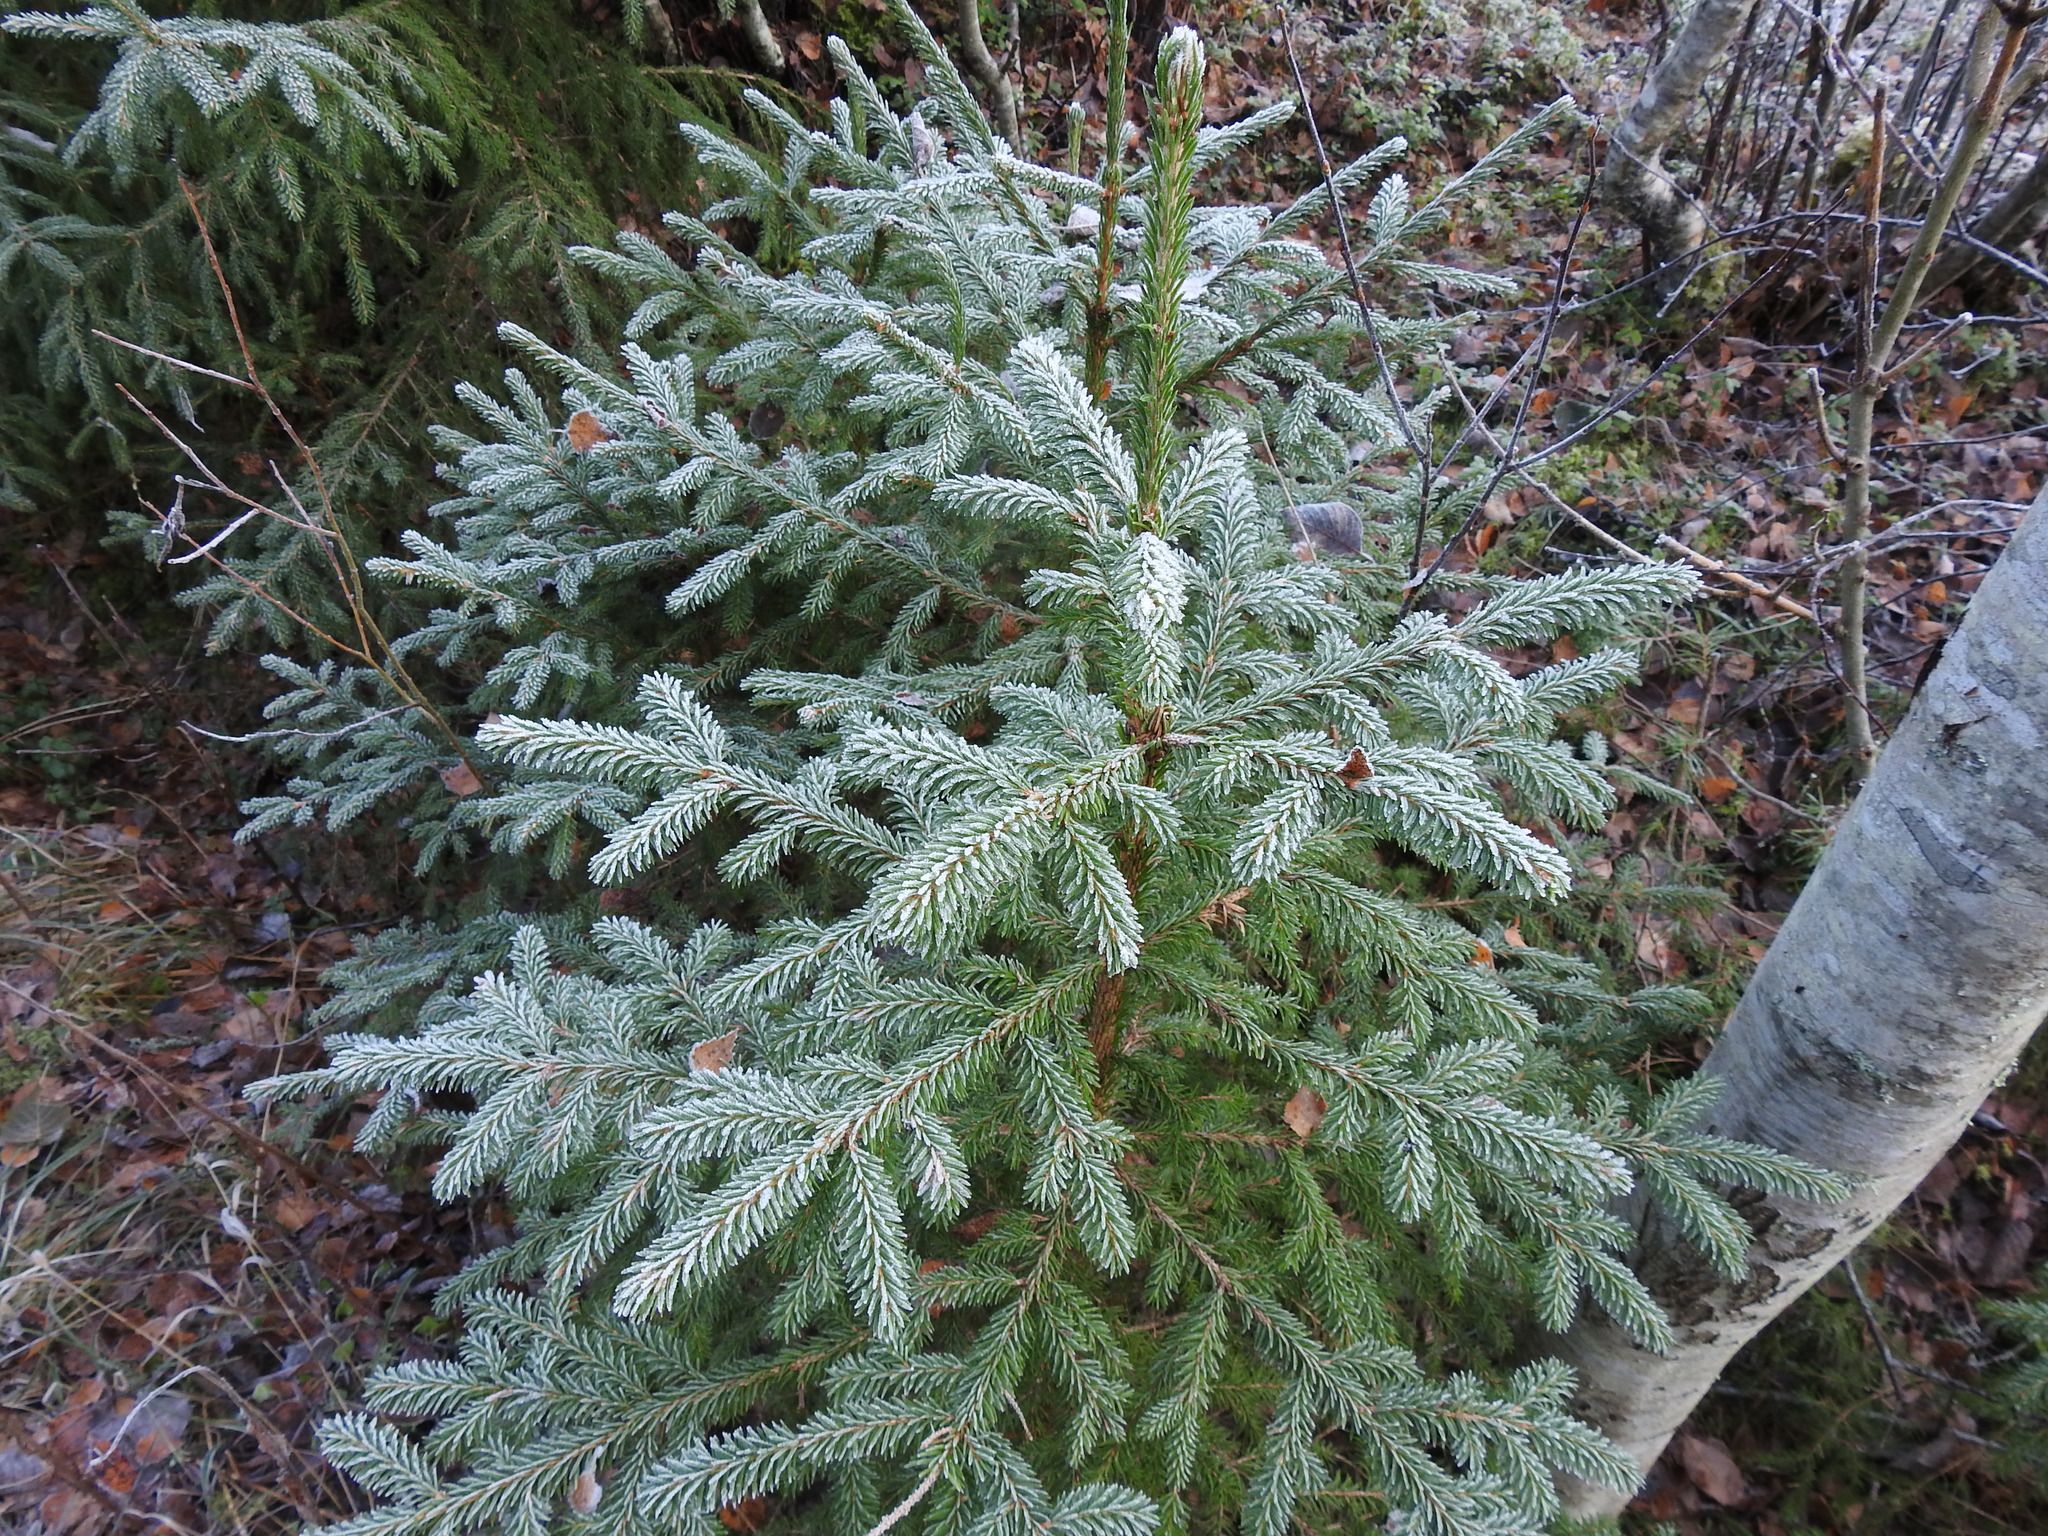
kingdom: Plantae
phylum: Tracheophyta
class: Pinopsida
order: Pinales
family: Pinaceae
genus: Picea
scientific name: Picea abies
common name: Norway spruce
